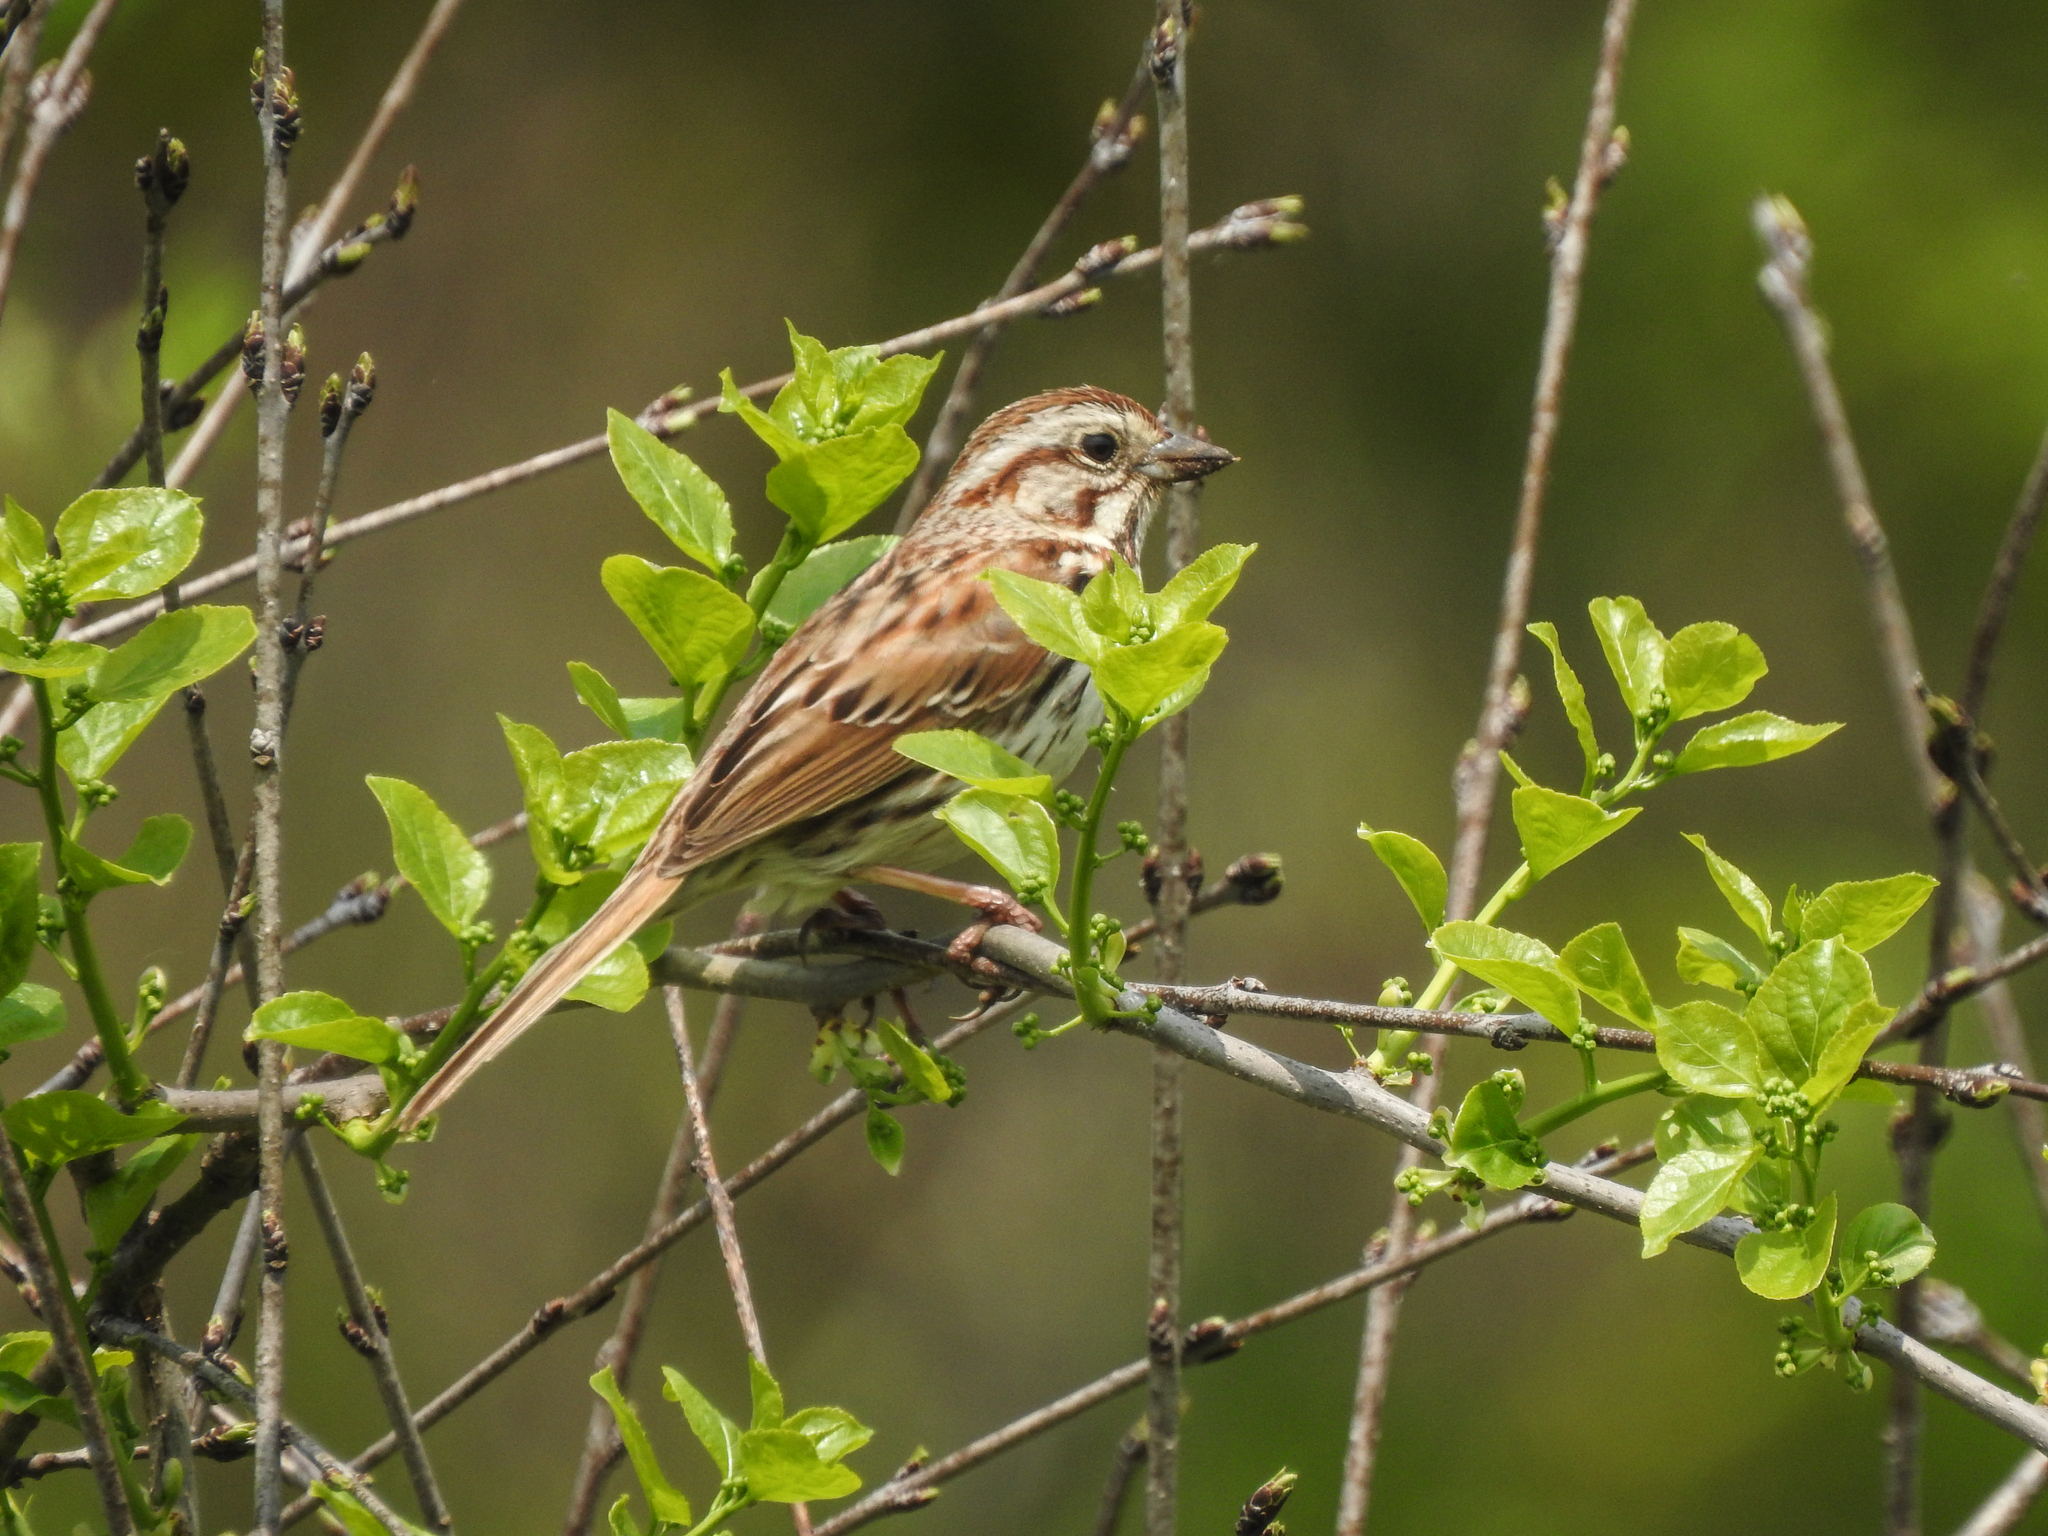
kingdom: Animalia
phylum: Chordata
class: Aves
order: Passeriformes
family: Passerellidae
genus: Melospiza
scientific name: Melospiza melodia
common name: Song sparrow
